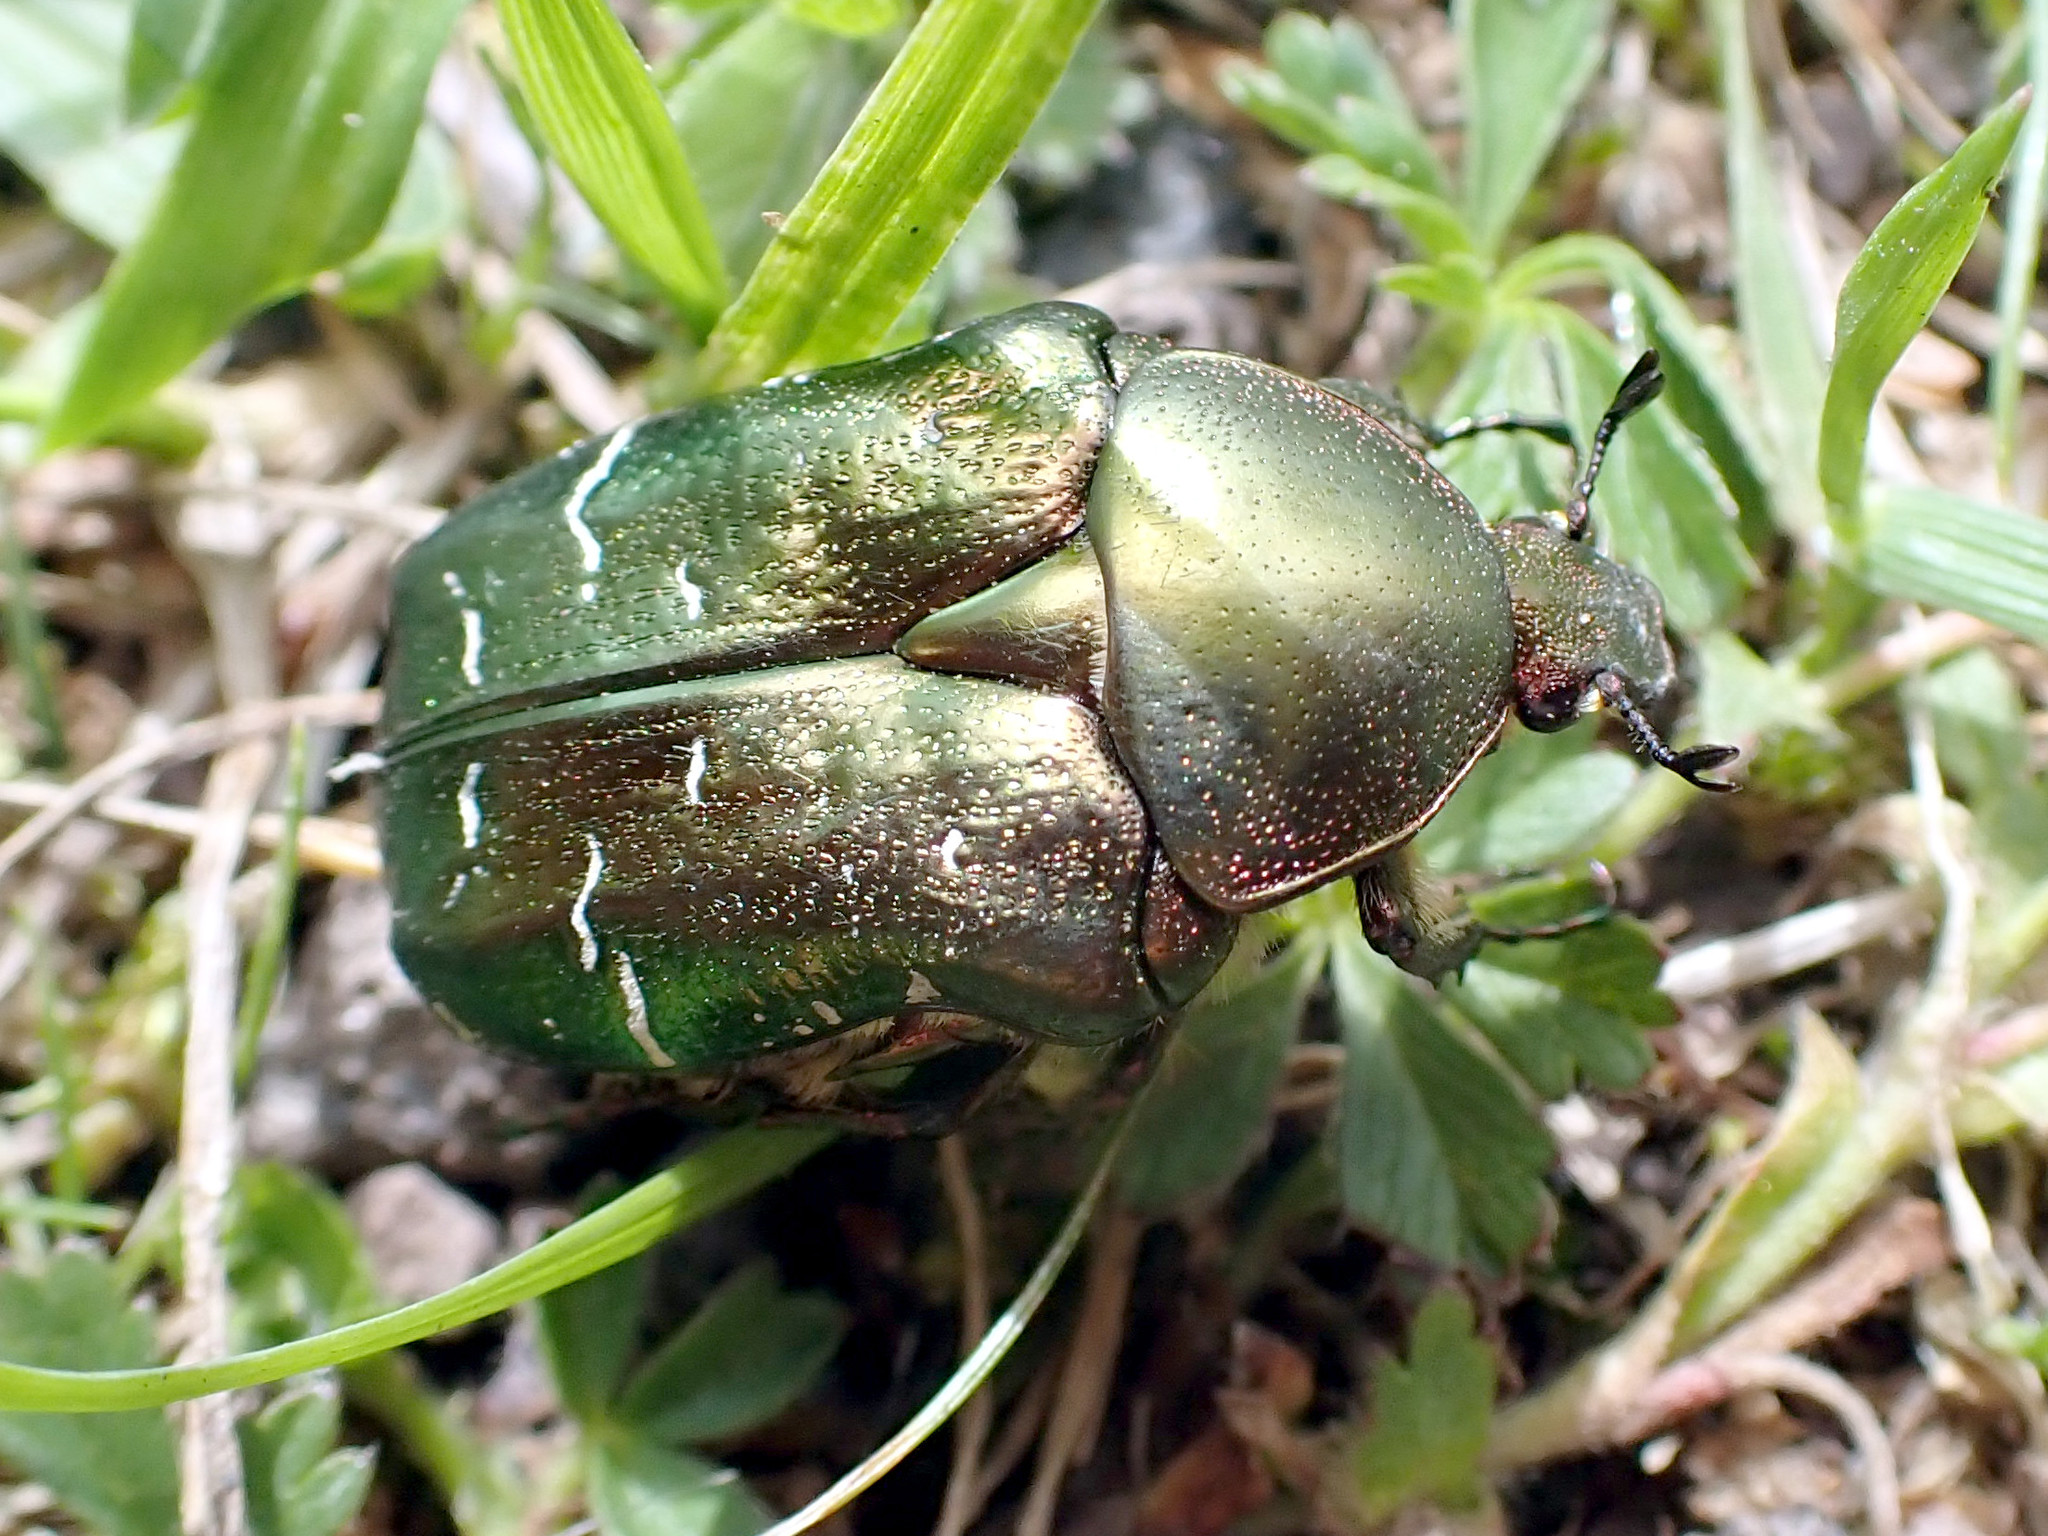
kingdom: Animalia
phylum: Arthropoda
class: Insecta
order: Coleoptera
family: Scarabaeidae
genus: Cetonia
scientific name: Cetonia aurata
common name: Rose chafer
